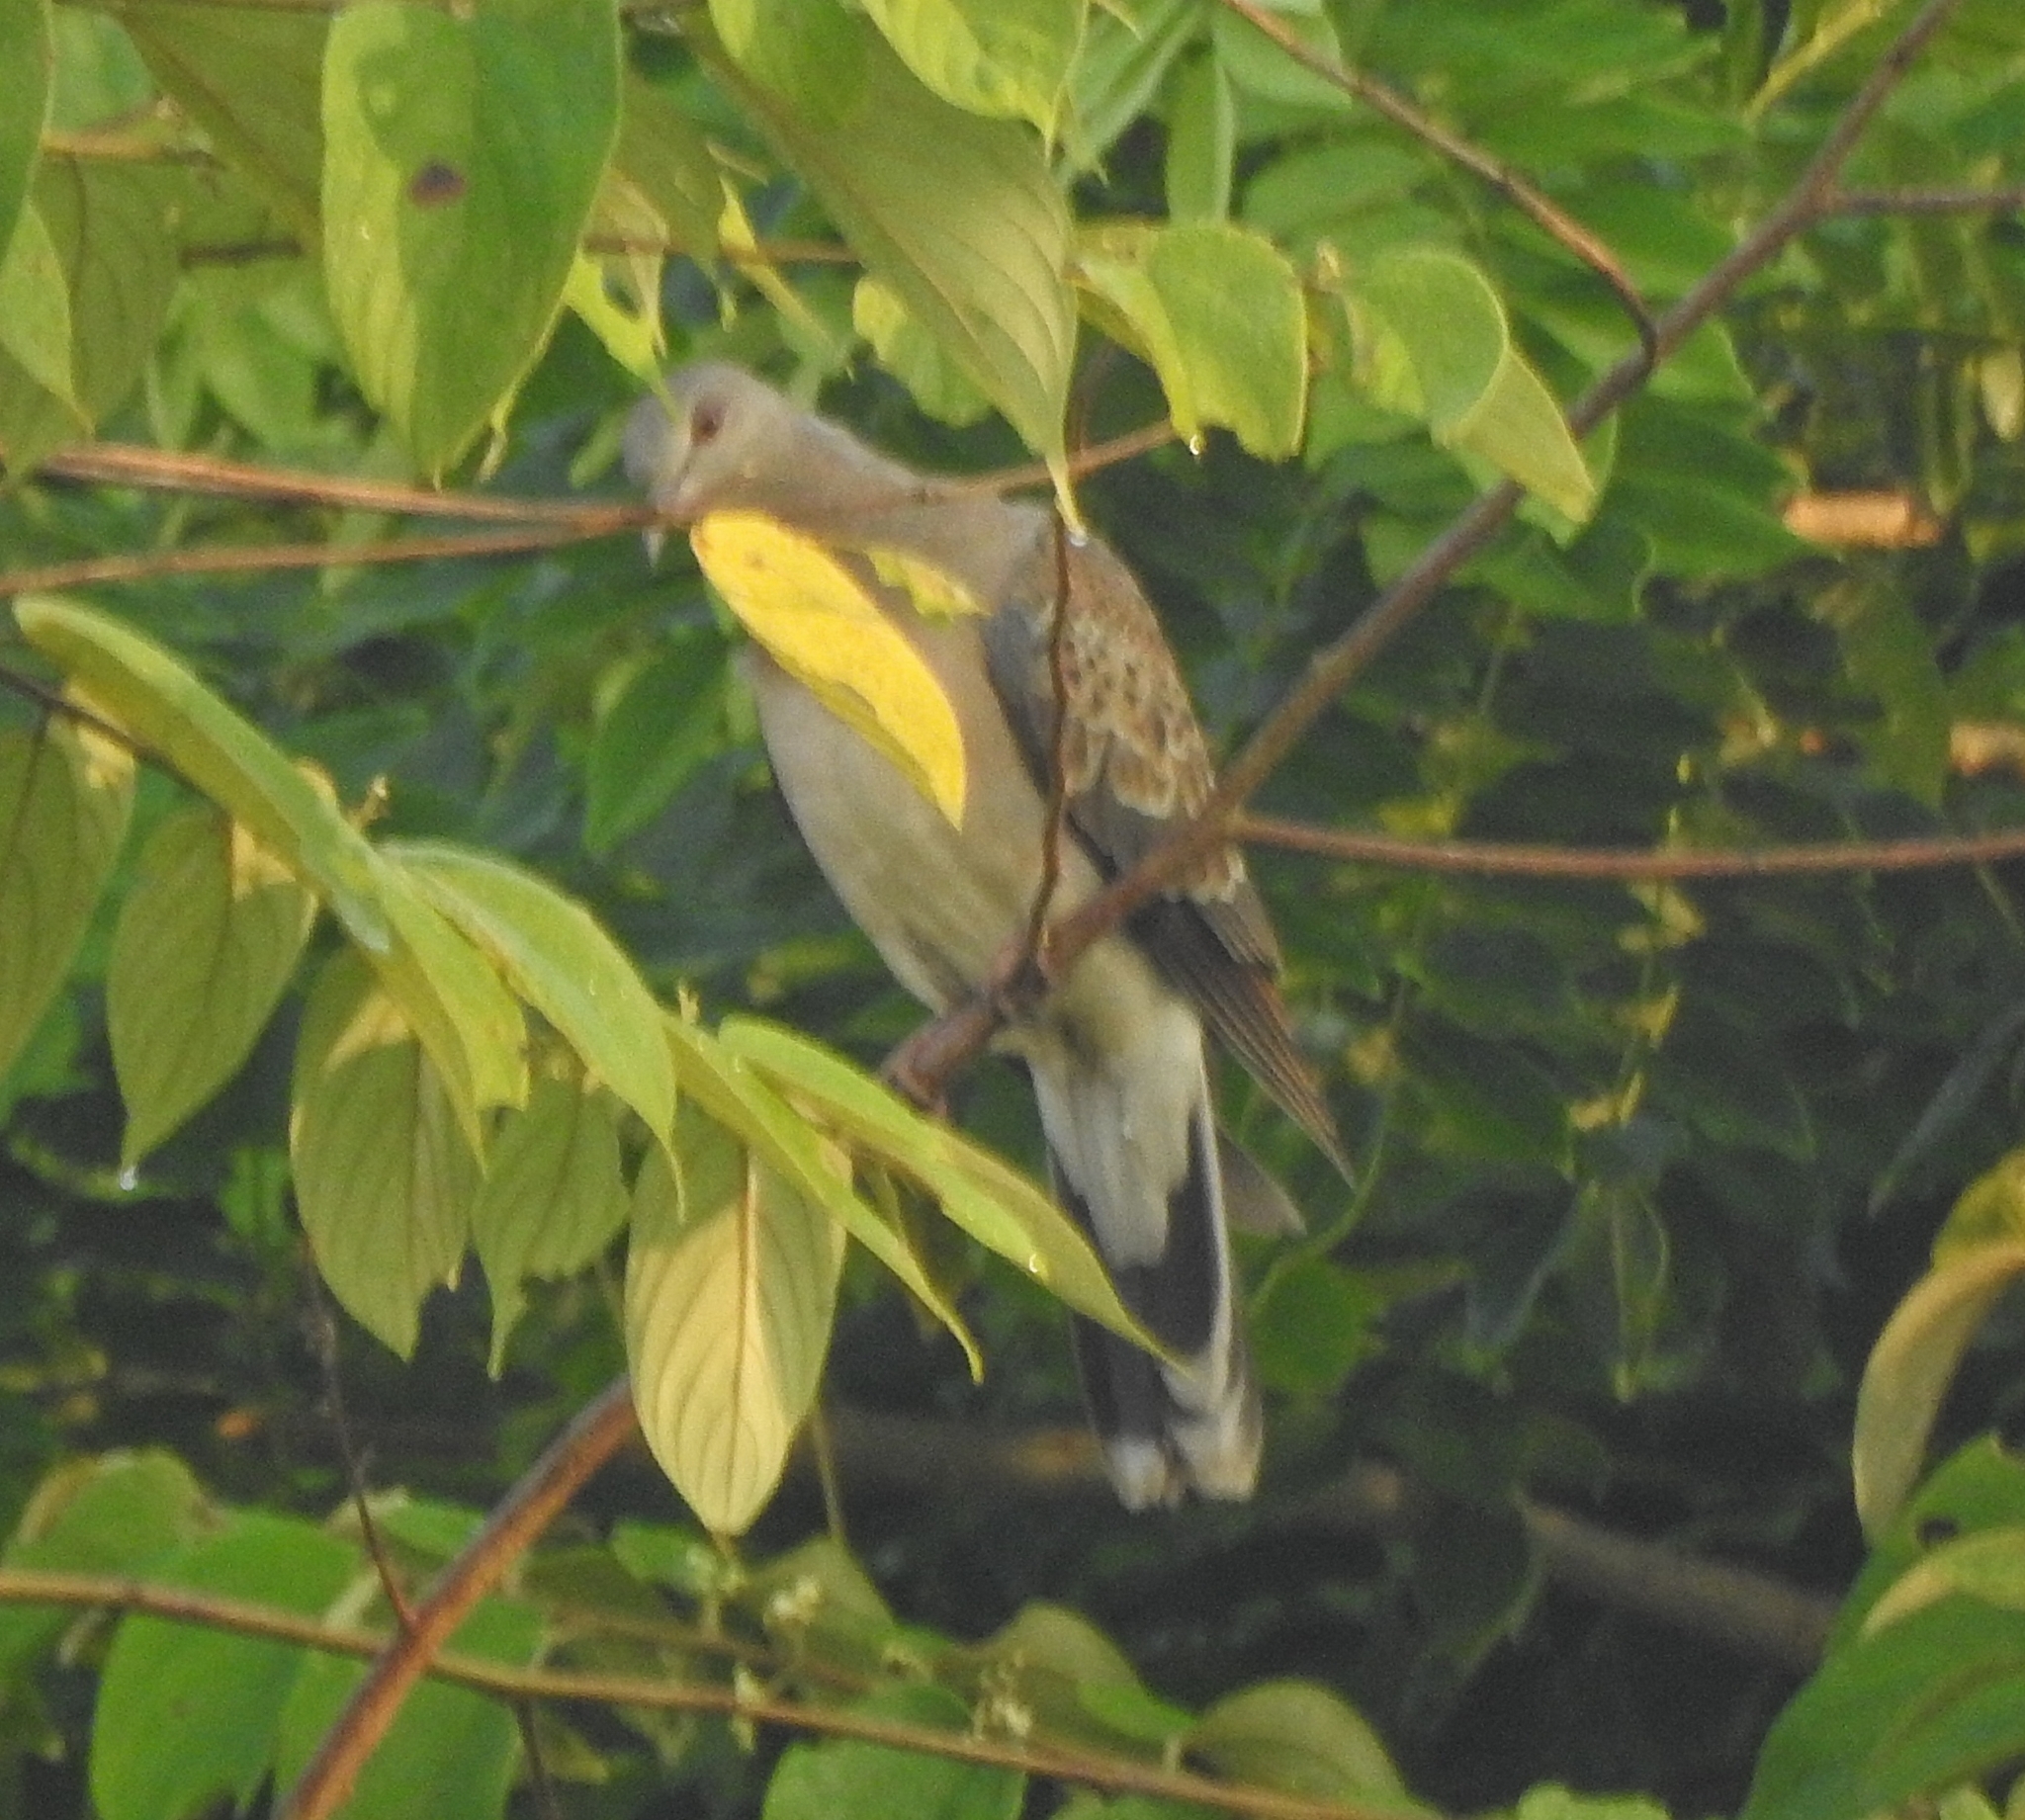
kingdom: Animalia
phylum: Chordata
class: Aves
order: Columbiformes
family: Columbidae
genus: Streptopelia
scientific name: Streptopelia orientalis
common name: Oriental turtle dove
